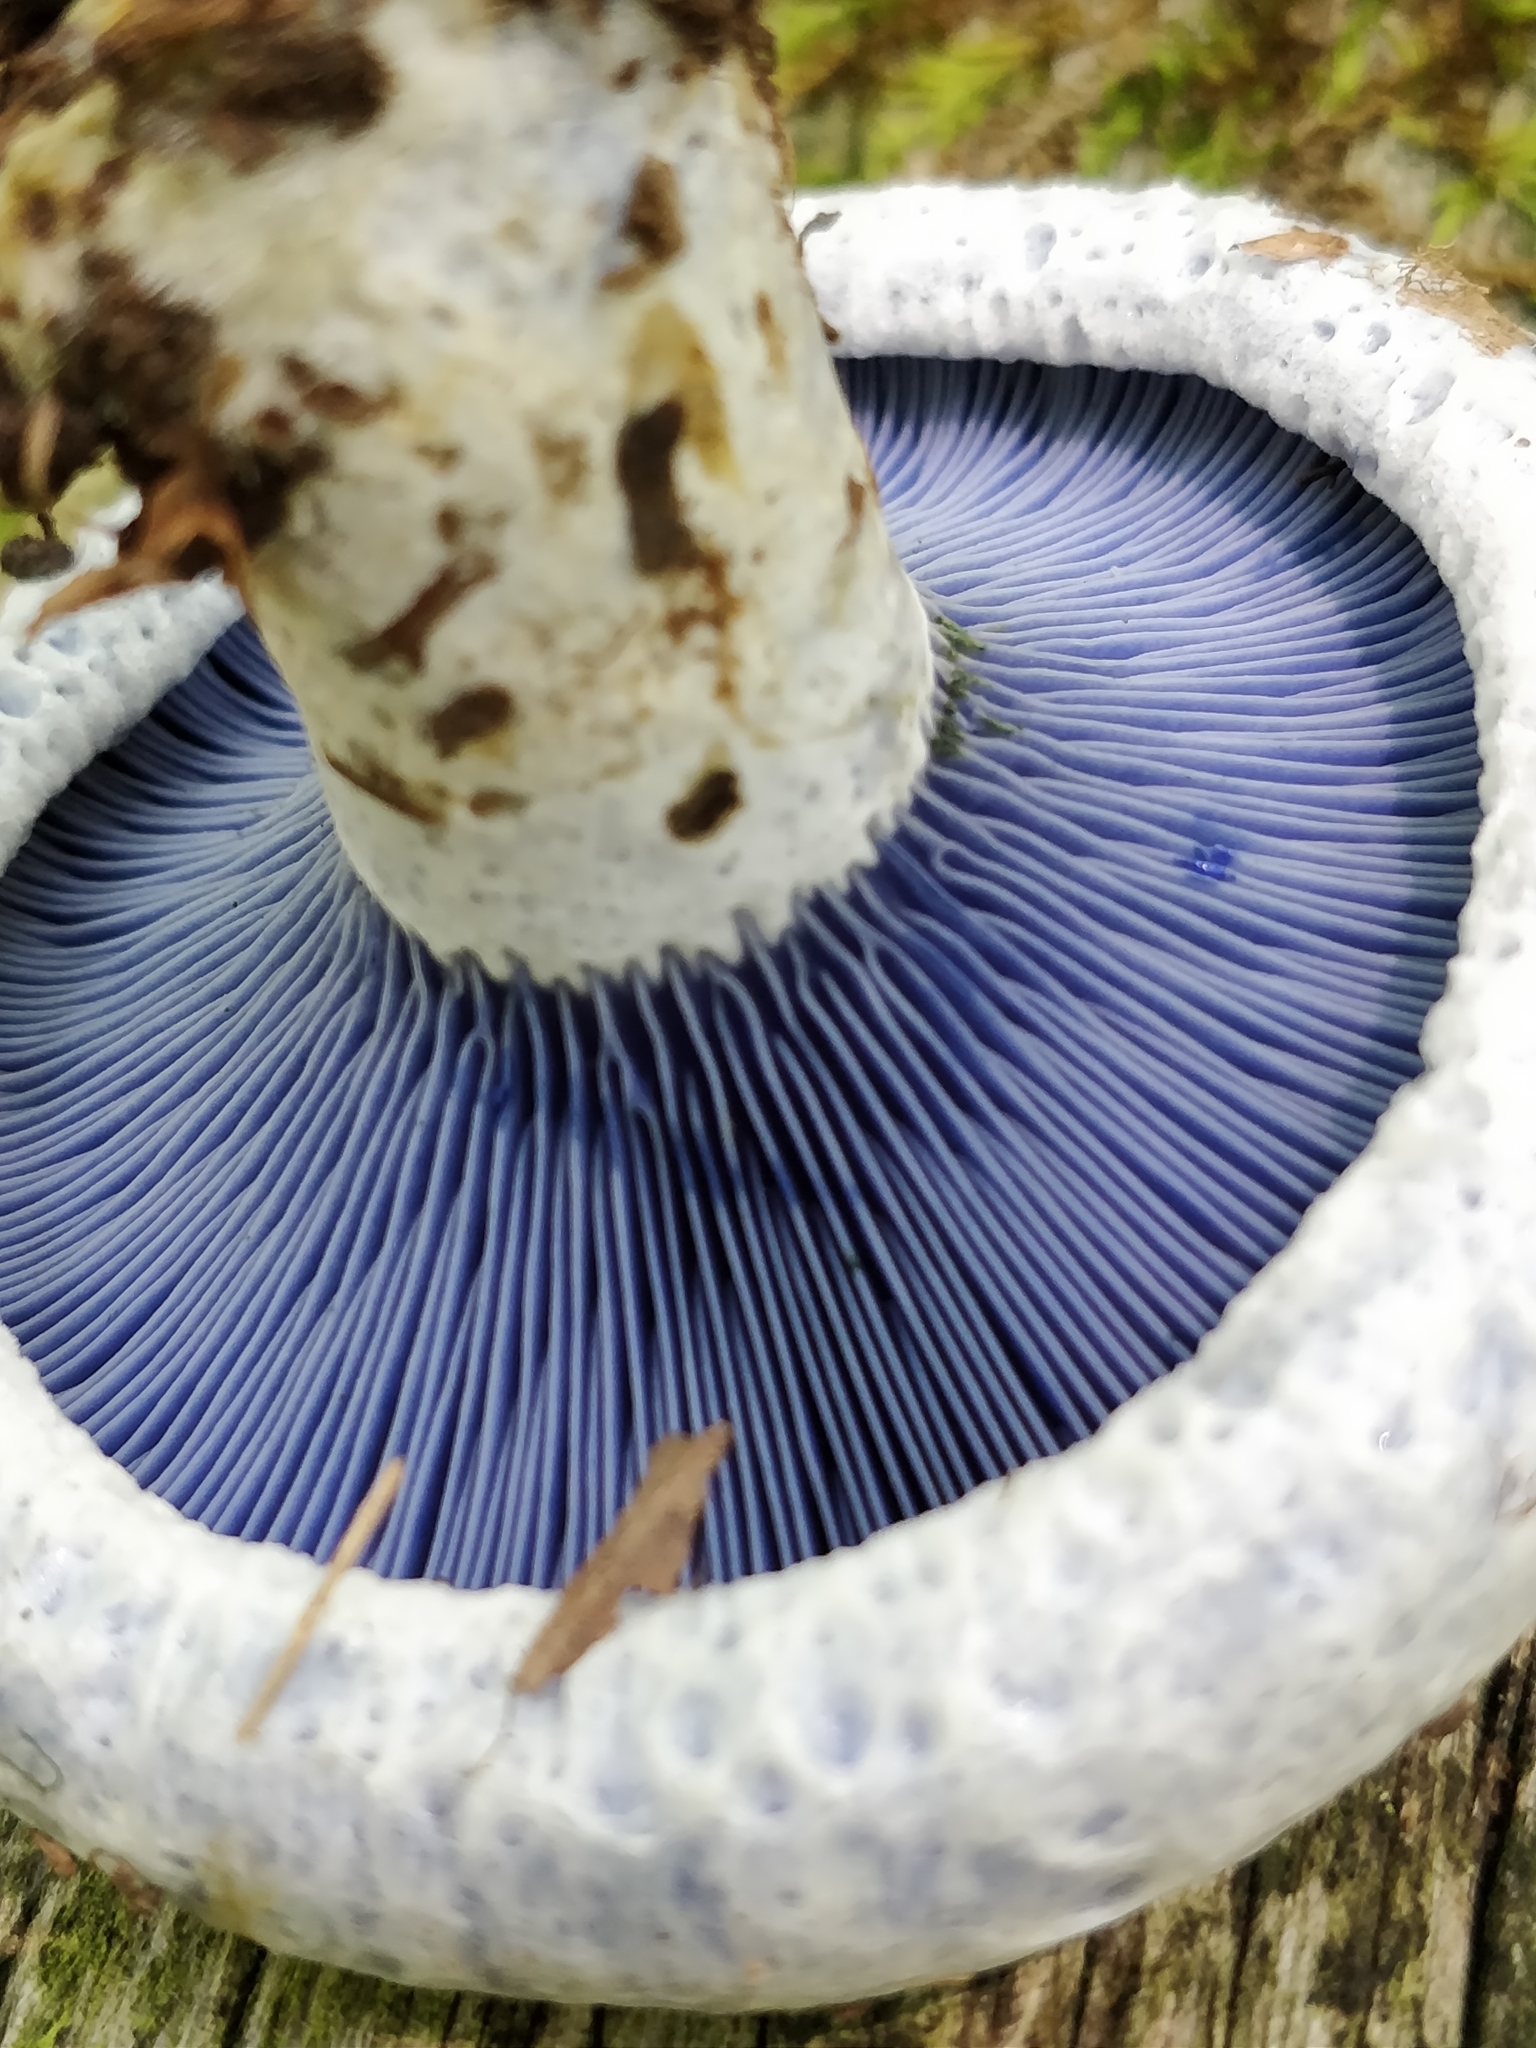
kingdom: Fungi
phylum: Basidiomycota
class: Agaricomycetes
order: Russulales
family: Russulaceae
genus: Lactarius
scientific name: Lactarius indigo
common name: Indigo milk cap
